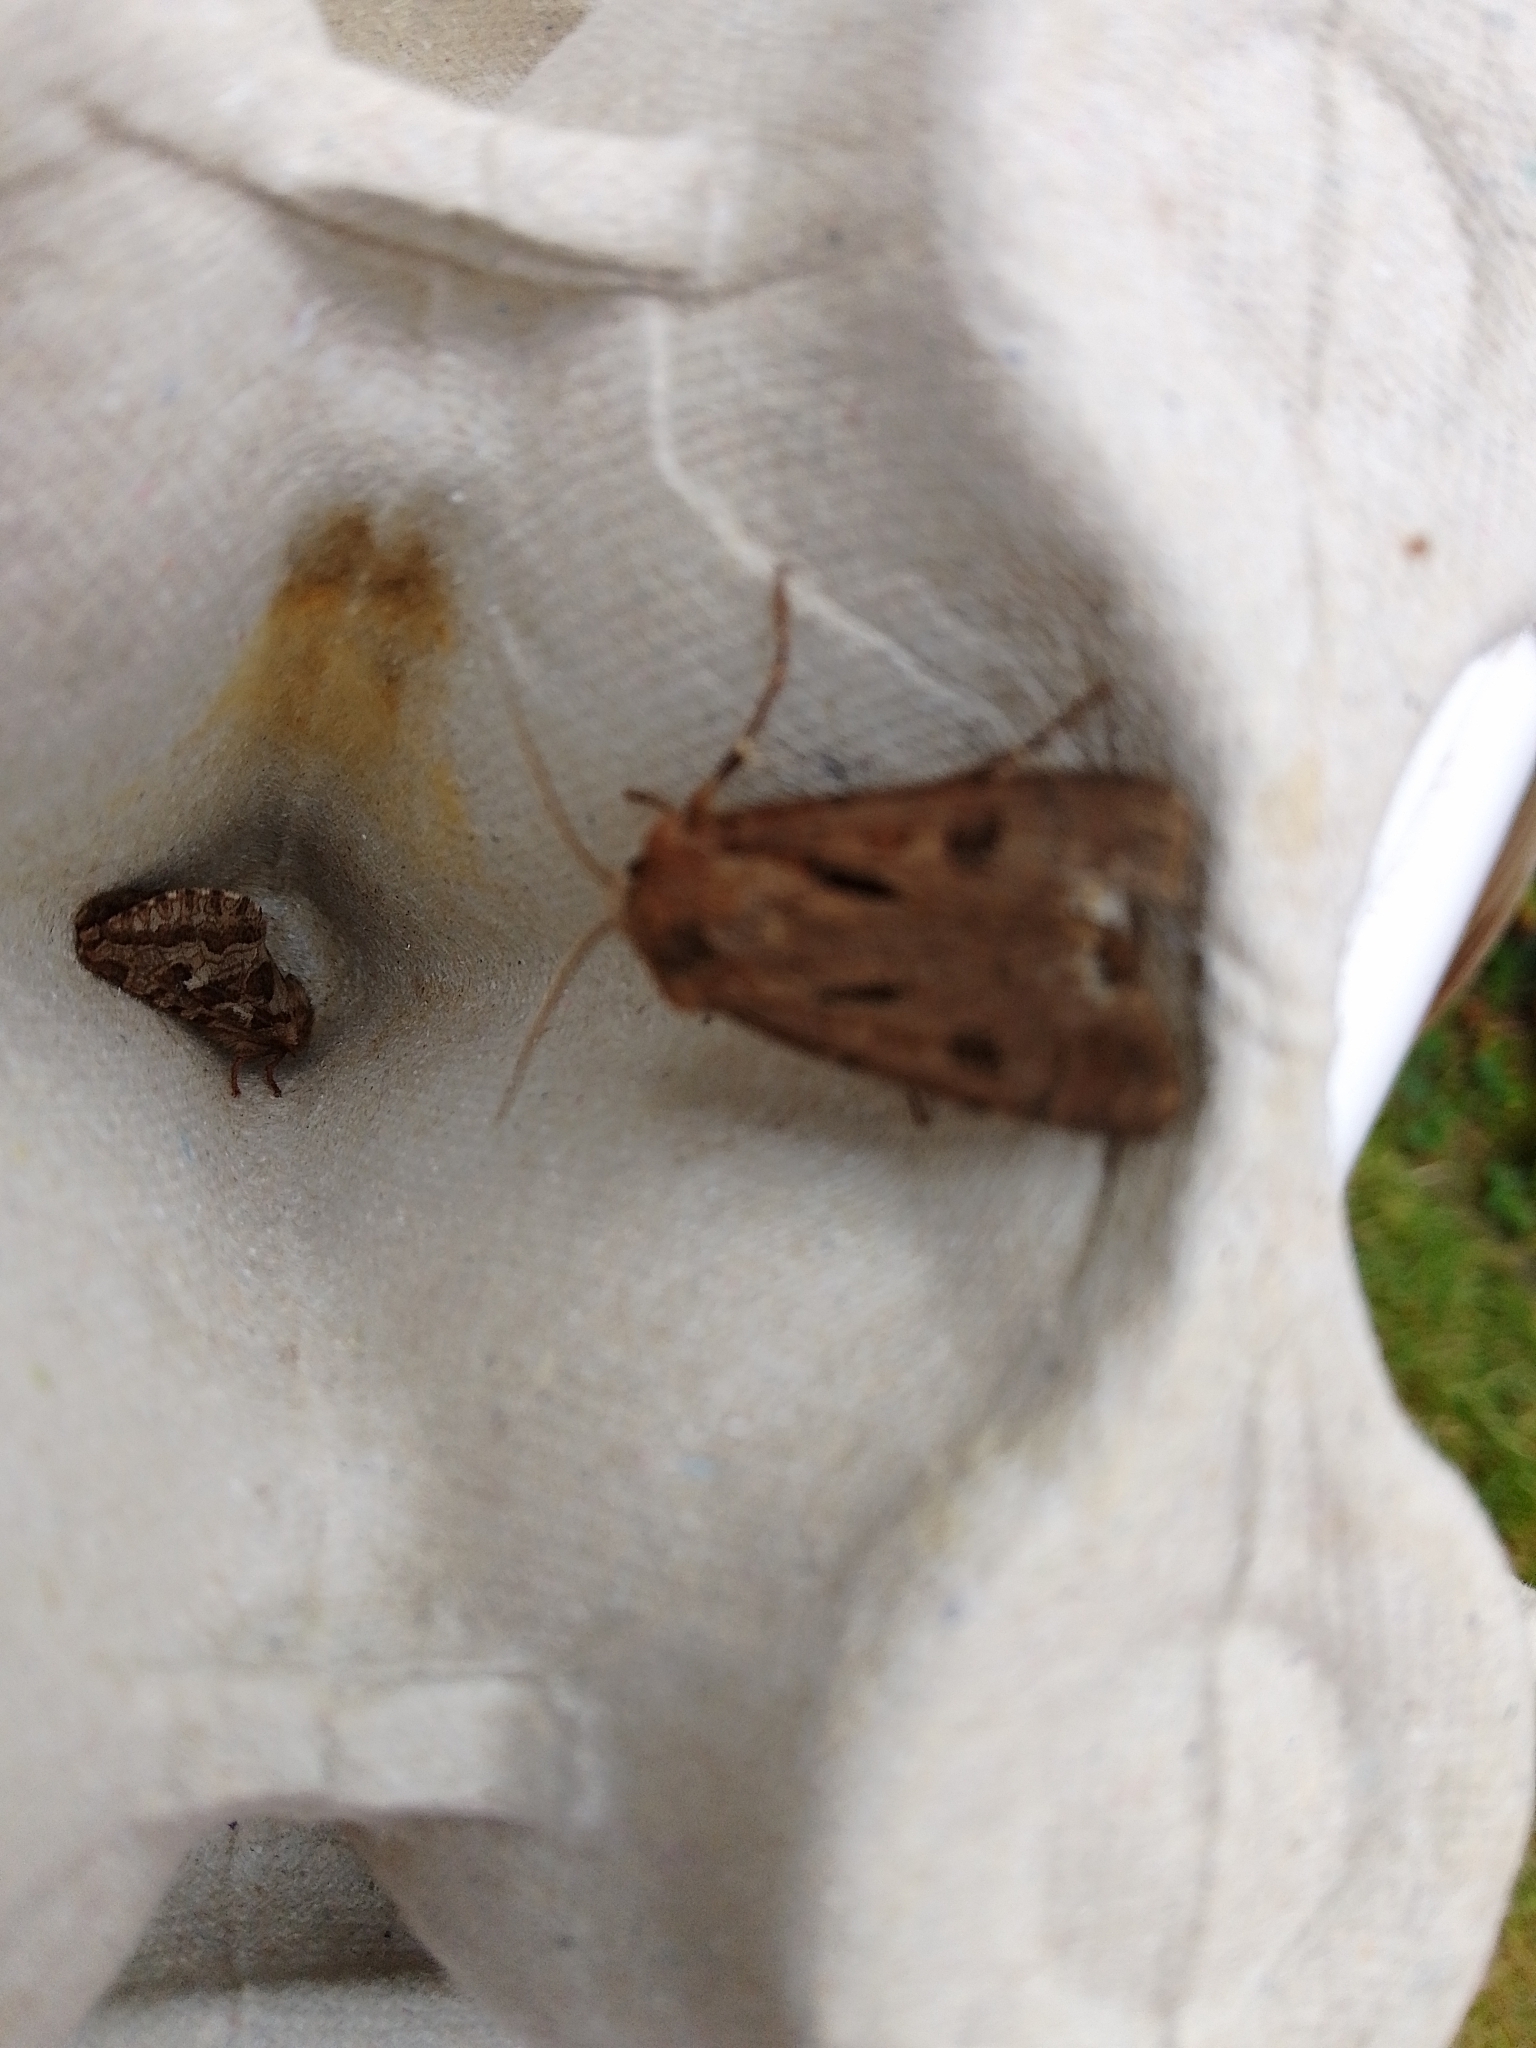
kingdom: Animalia
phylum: Arthropoda
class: Insecta
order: Lepidoptera
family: Noctuidae
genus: Agrotis
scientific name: Agrotis exclamationis
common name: Heart and dart
